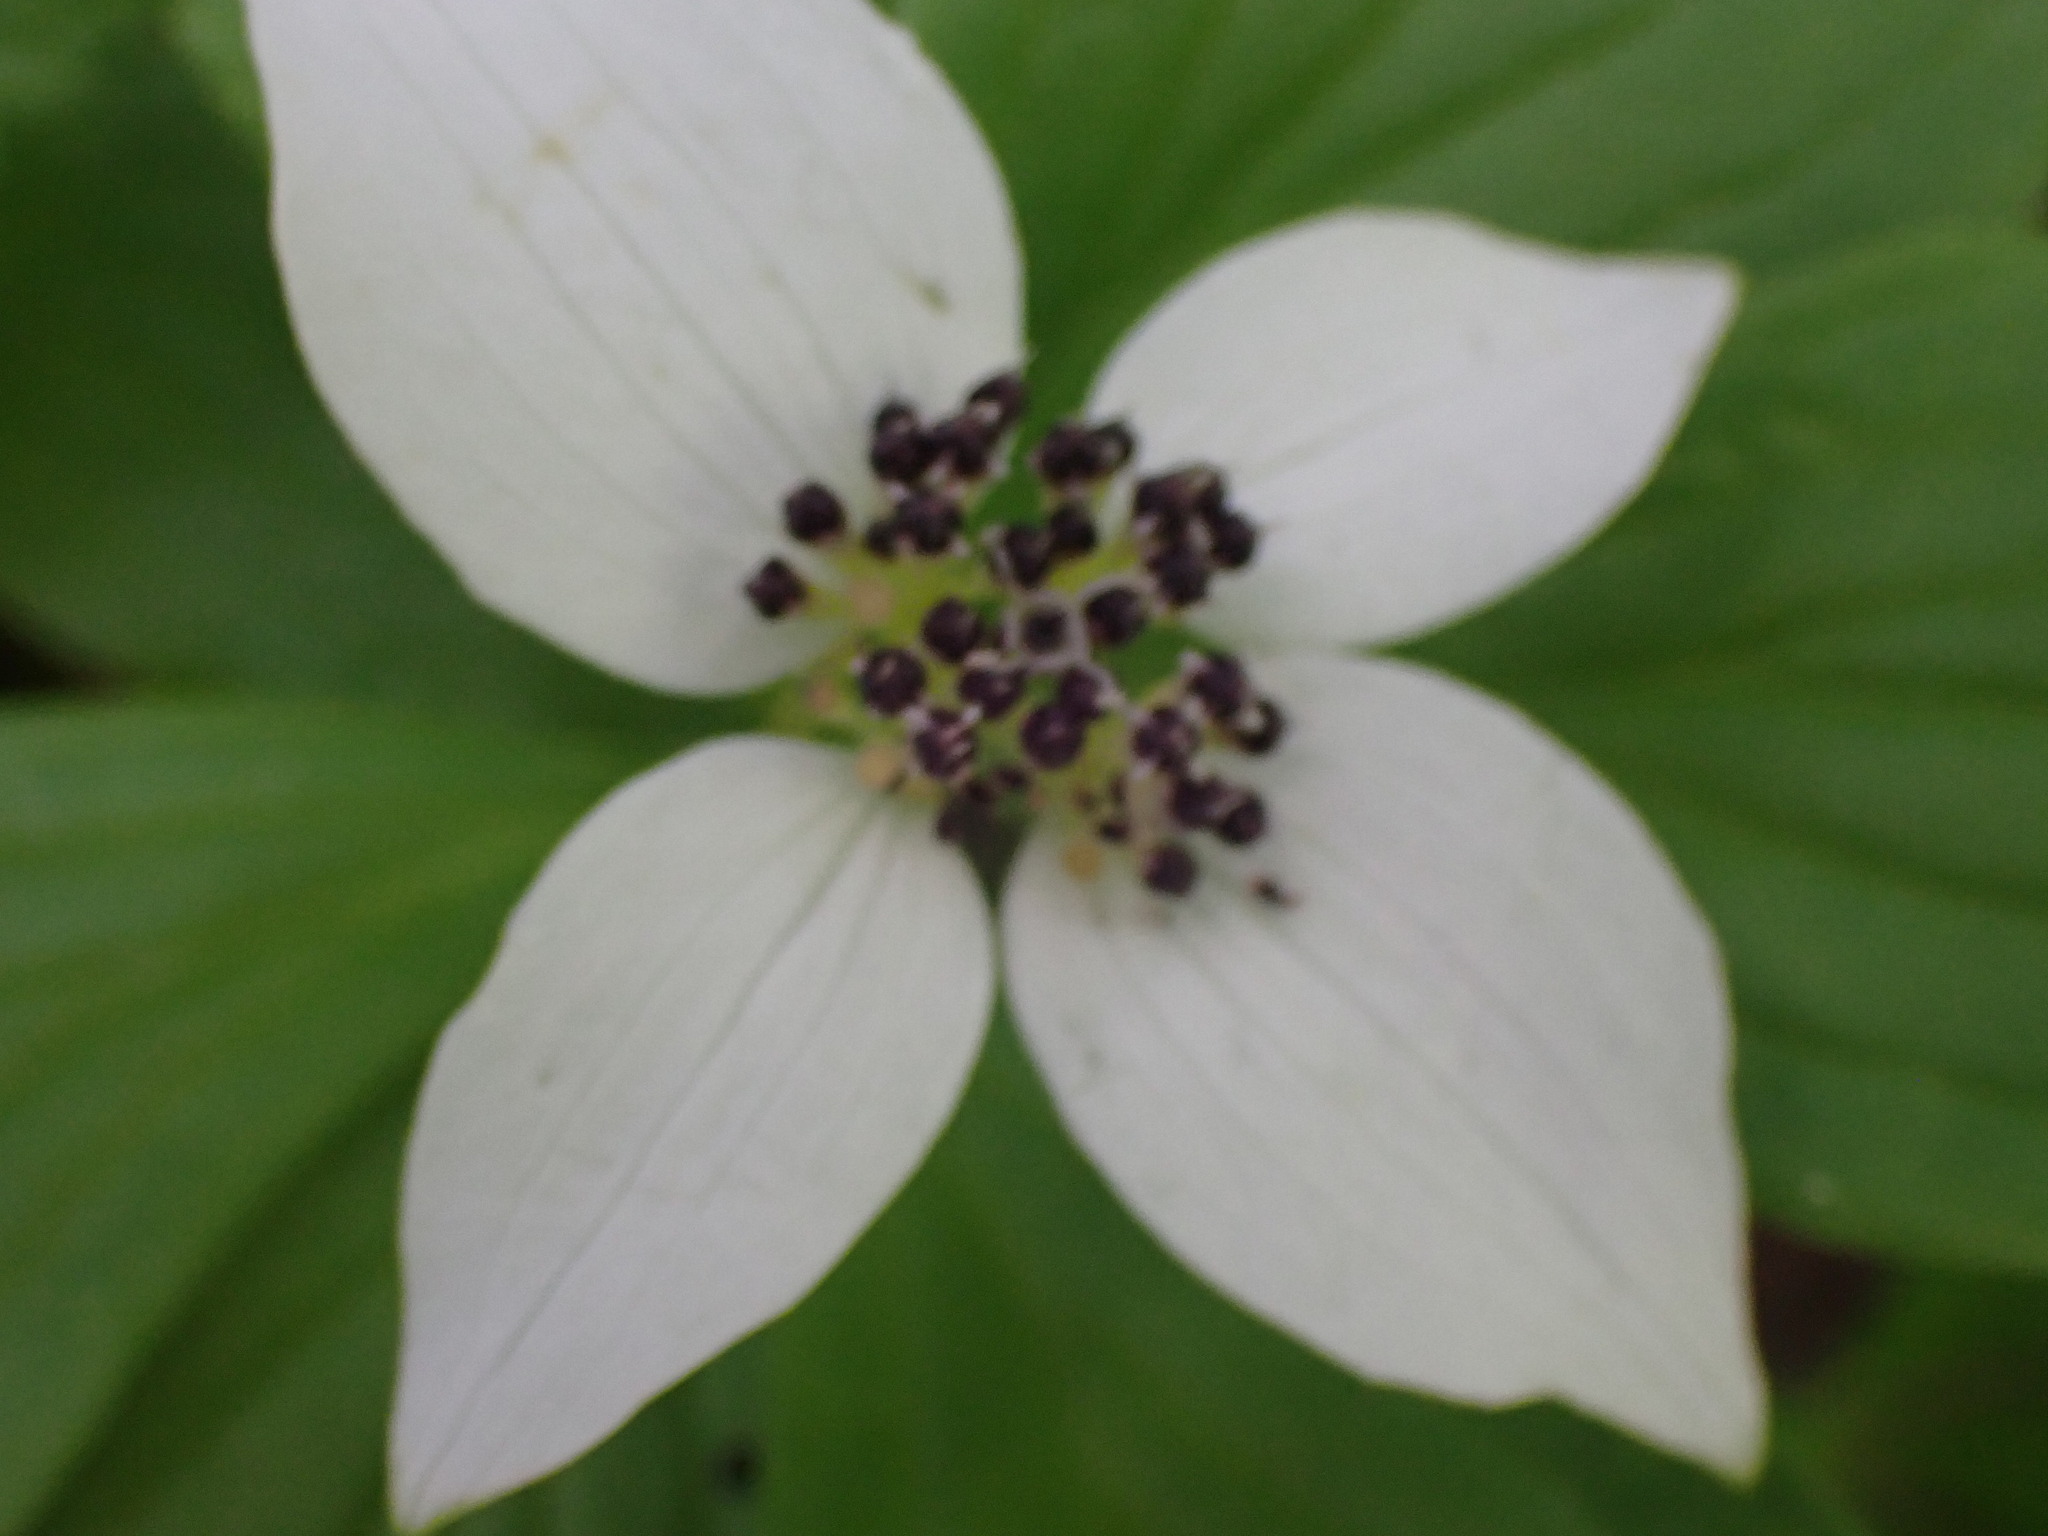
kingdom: Plantae
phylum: Tracheophyta
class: Magnoliopsida
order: Cornales
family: Cornaceae
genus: Cornus
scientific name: Cornus unalaschkensis
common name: Alaska bunchberry
